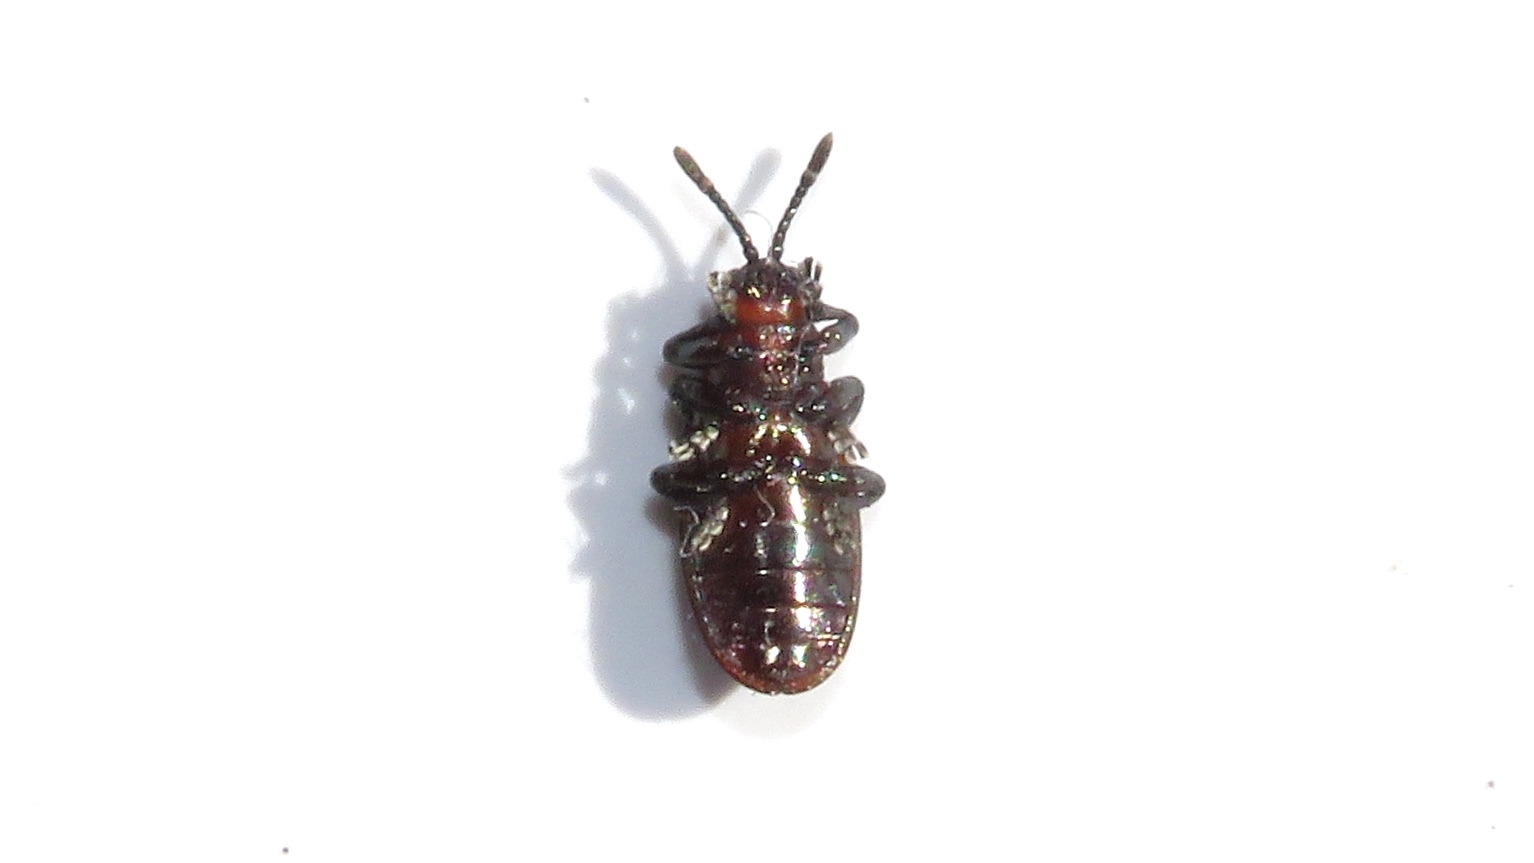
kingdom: Animalia
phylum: Arthropoda
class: Insecta
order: Coleoptera
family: Chrysomelidae
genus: Microrhopala
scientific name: Microrhopala vittata
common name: Goldenrod leaf miner beetle
